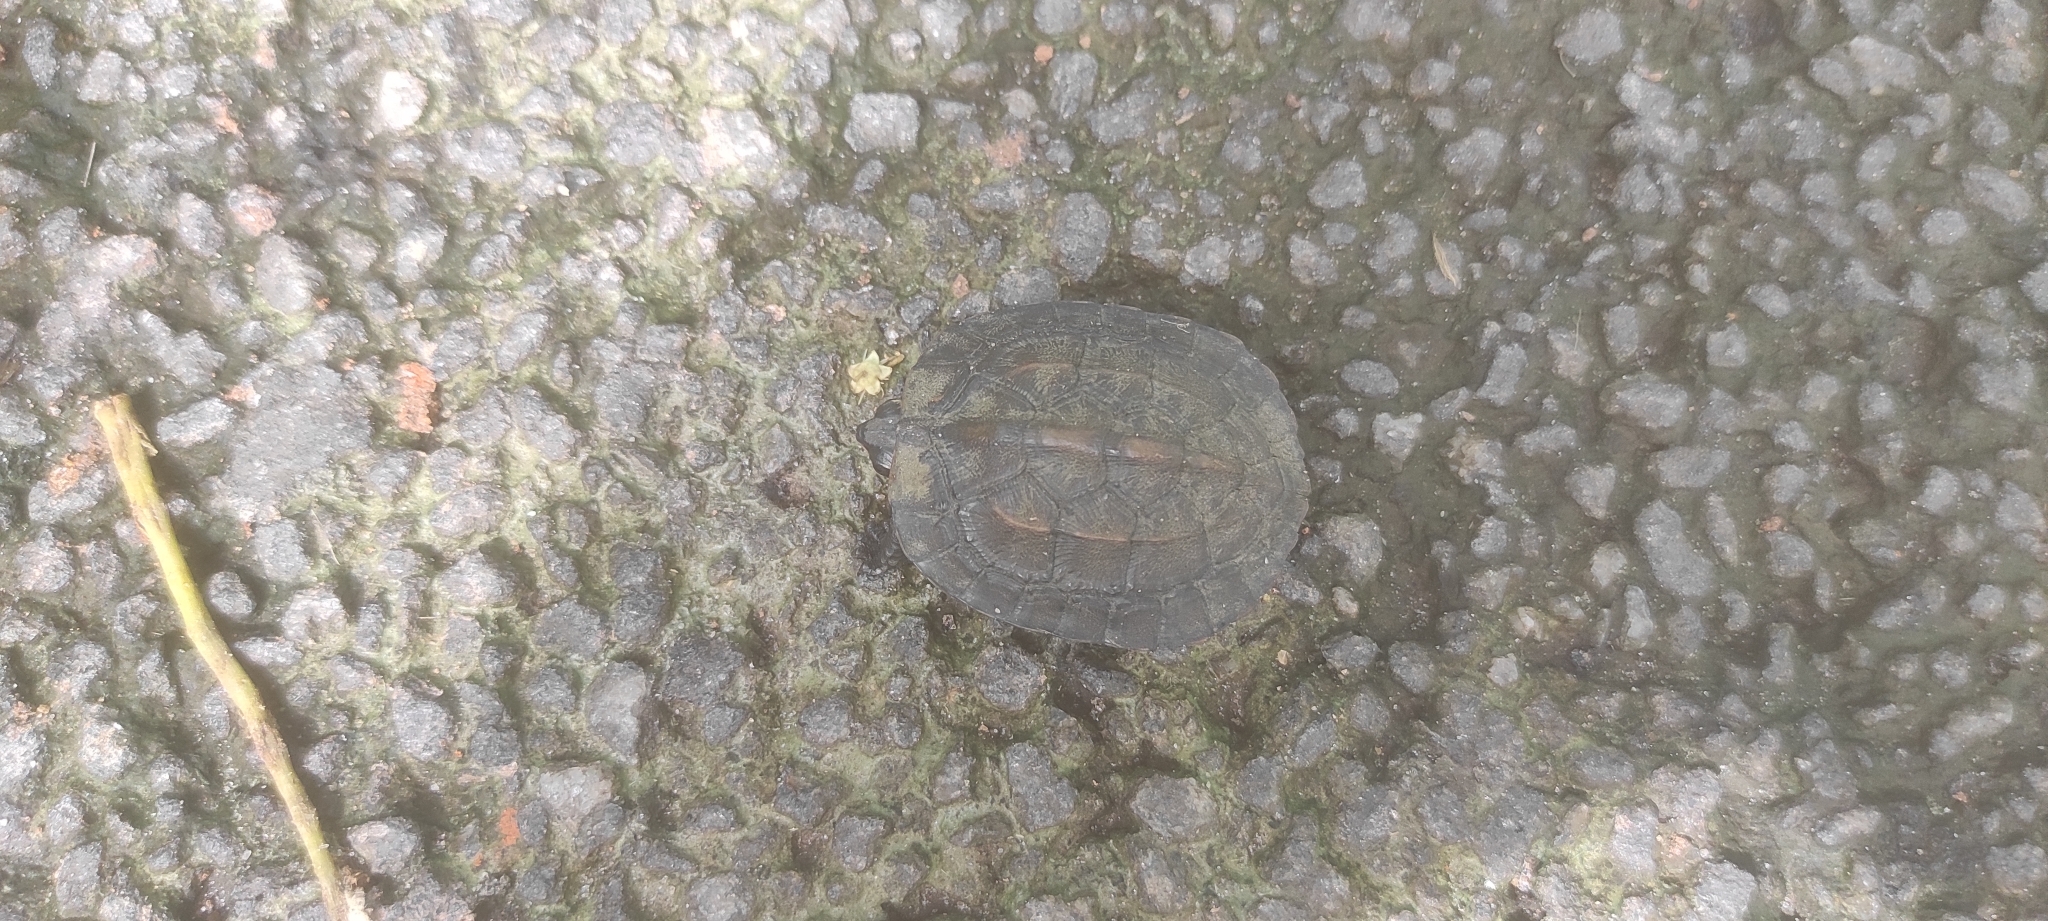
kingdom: Animalia
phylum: Chordata
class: Testudines
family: Geoemydidae
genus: Melanochelys
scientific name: Melanochelys trijuga
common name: Indian black turtle
